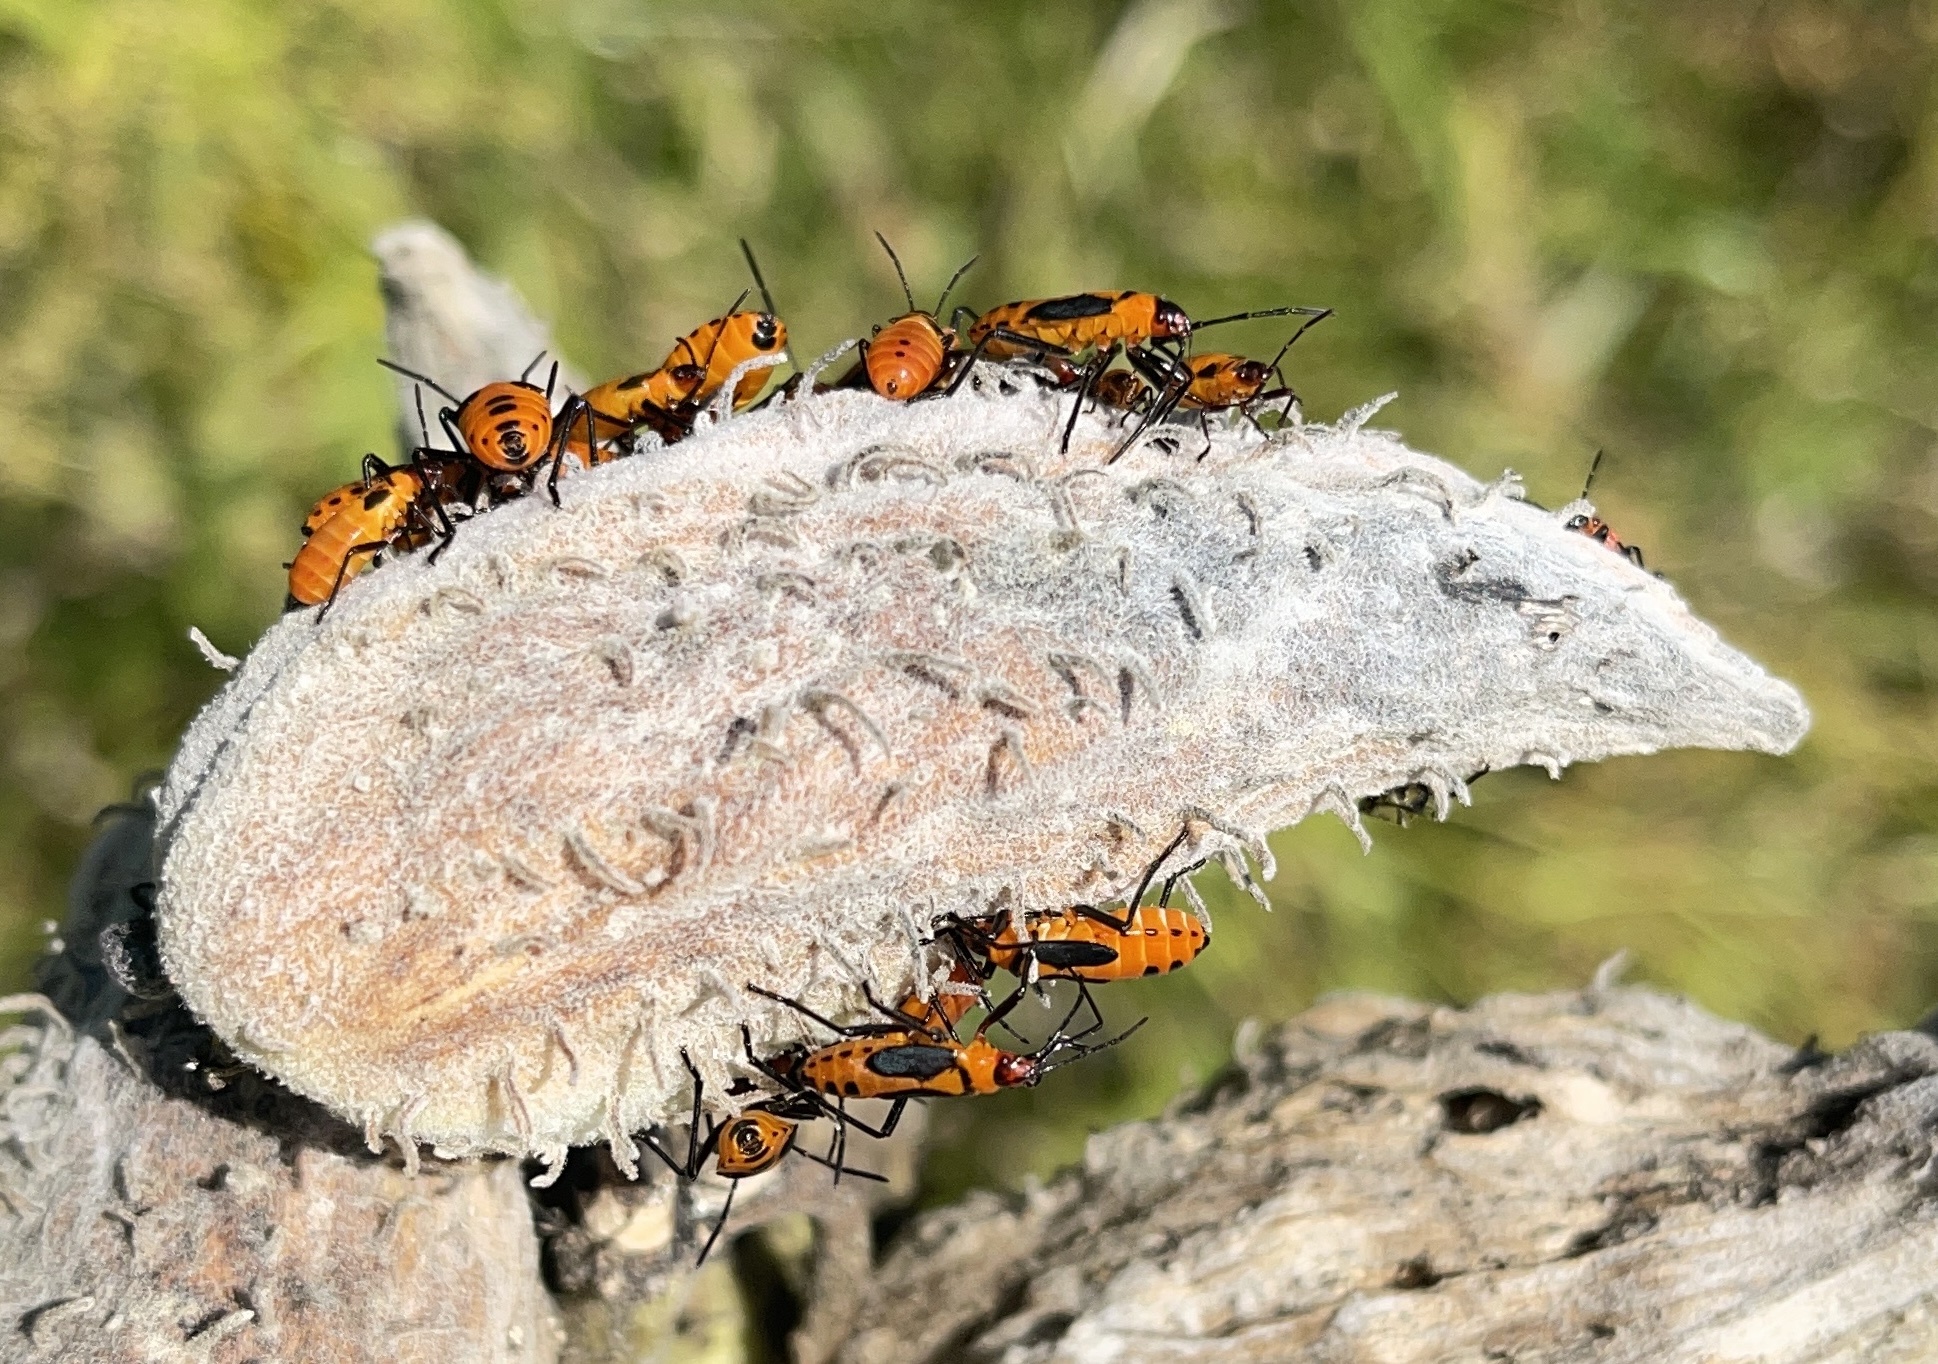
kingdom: Animalia
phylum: Arthropoda
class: Insecta
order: Hemiptera
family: Lygaeidae
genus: Oncopeltus
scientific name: Oncopeltus fasciatus
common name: Large milkweed bug
